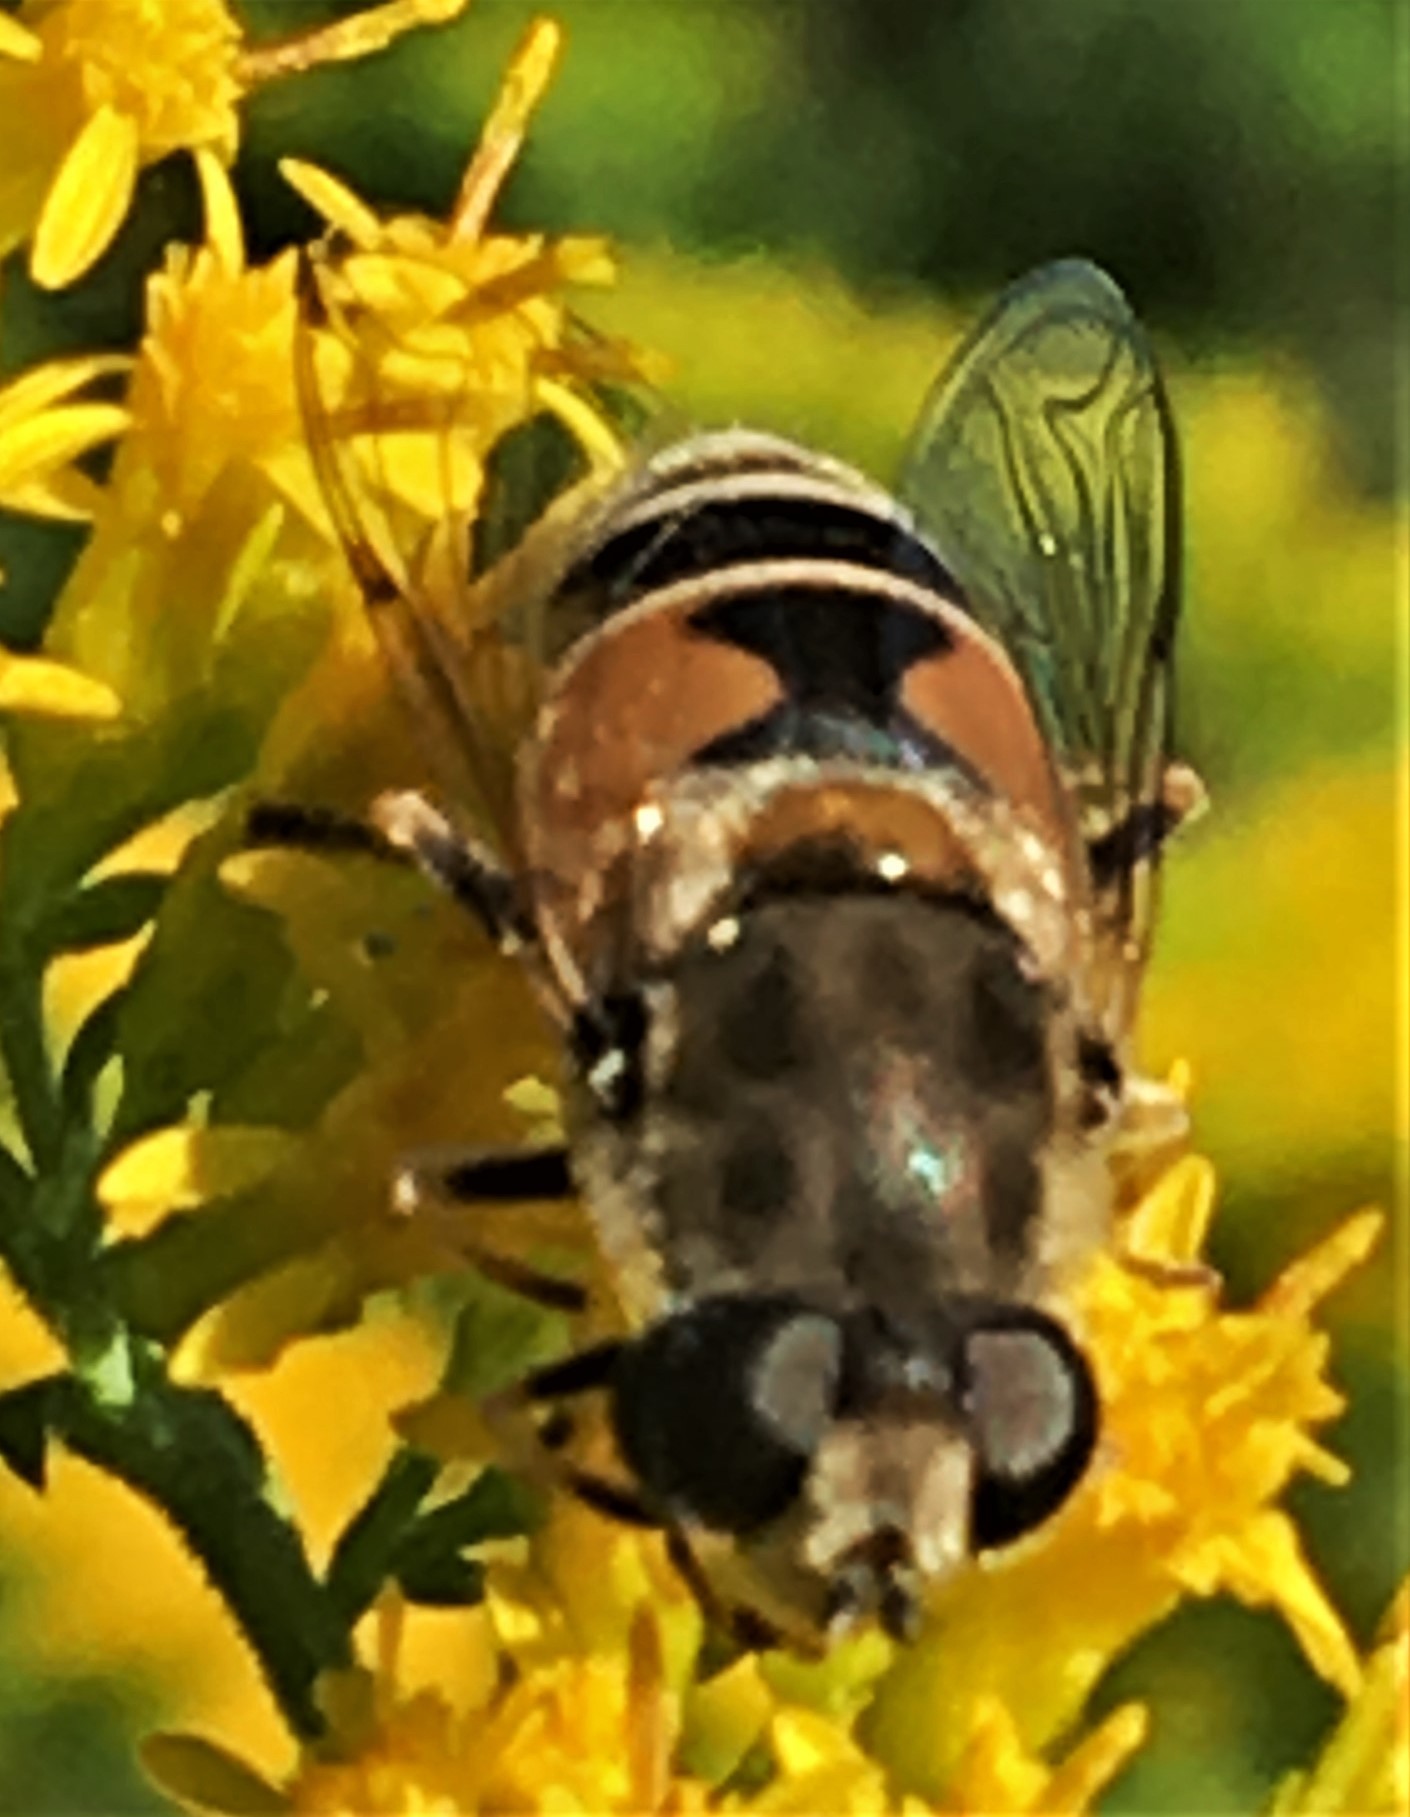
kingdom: Animalia
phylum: Arthropoda
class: Insecta
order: Diptera
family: Syrphidae
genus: Eristalis
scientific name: Eristalis arbustorum
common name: Hover fly
